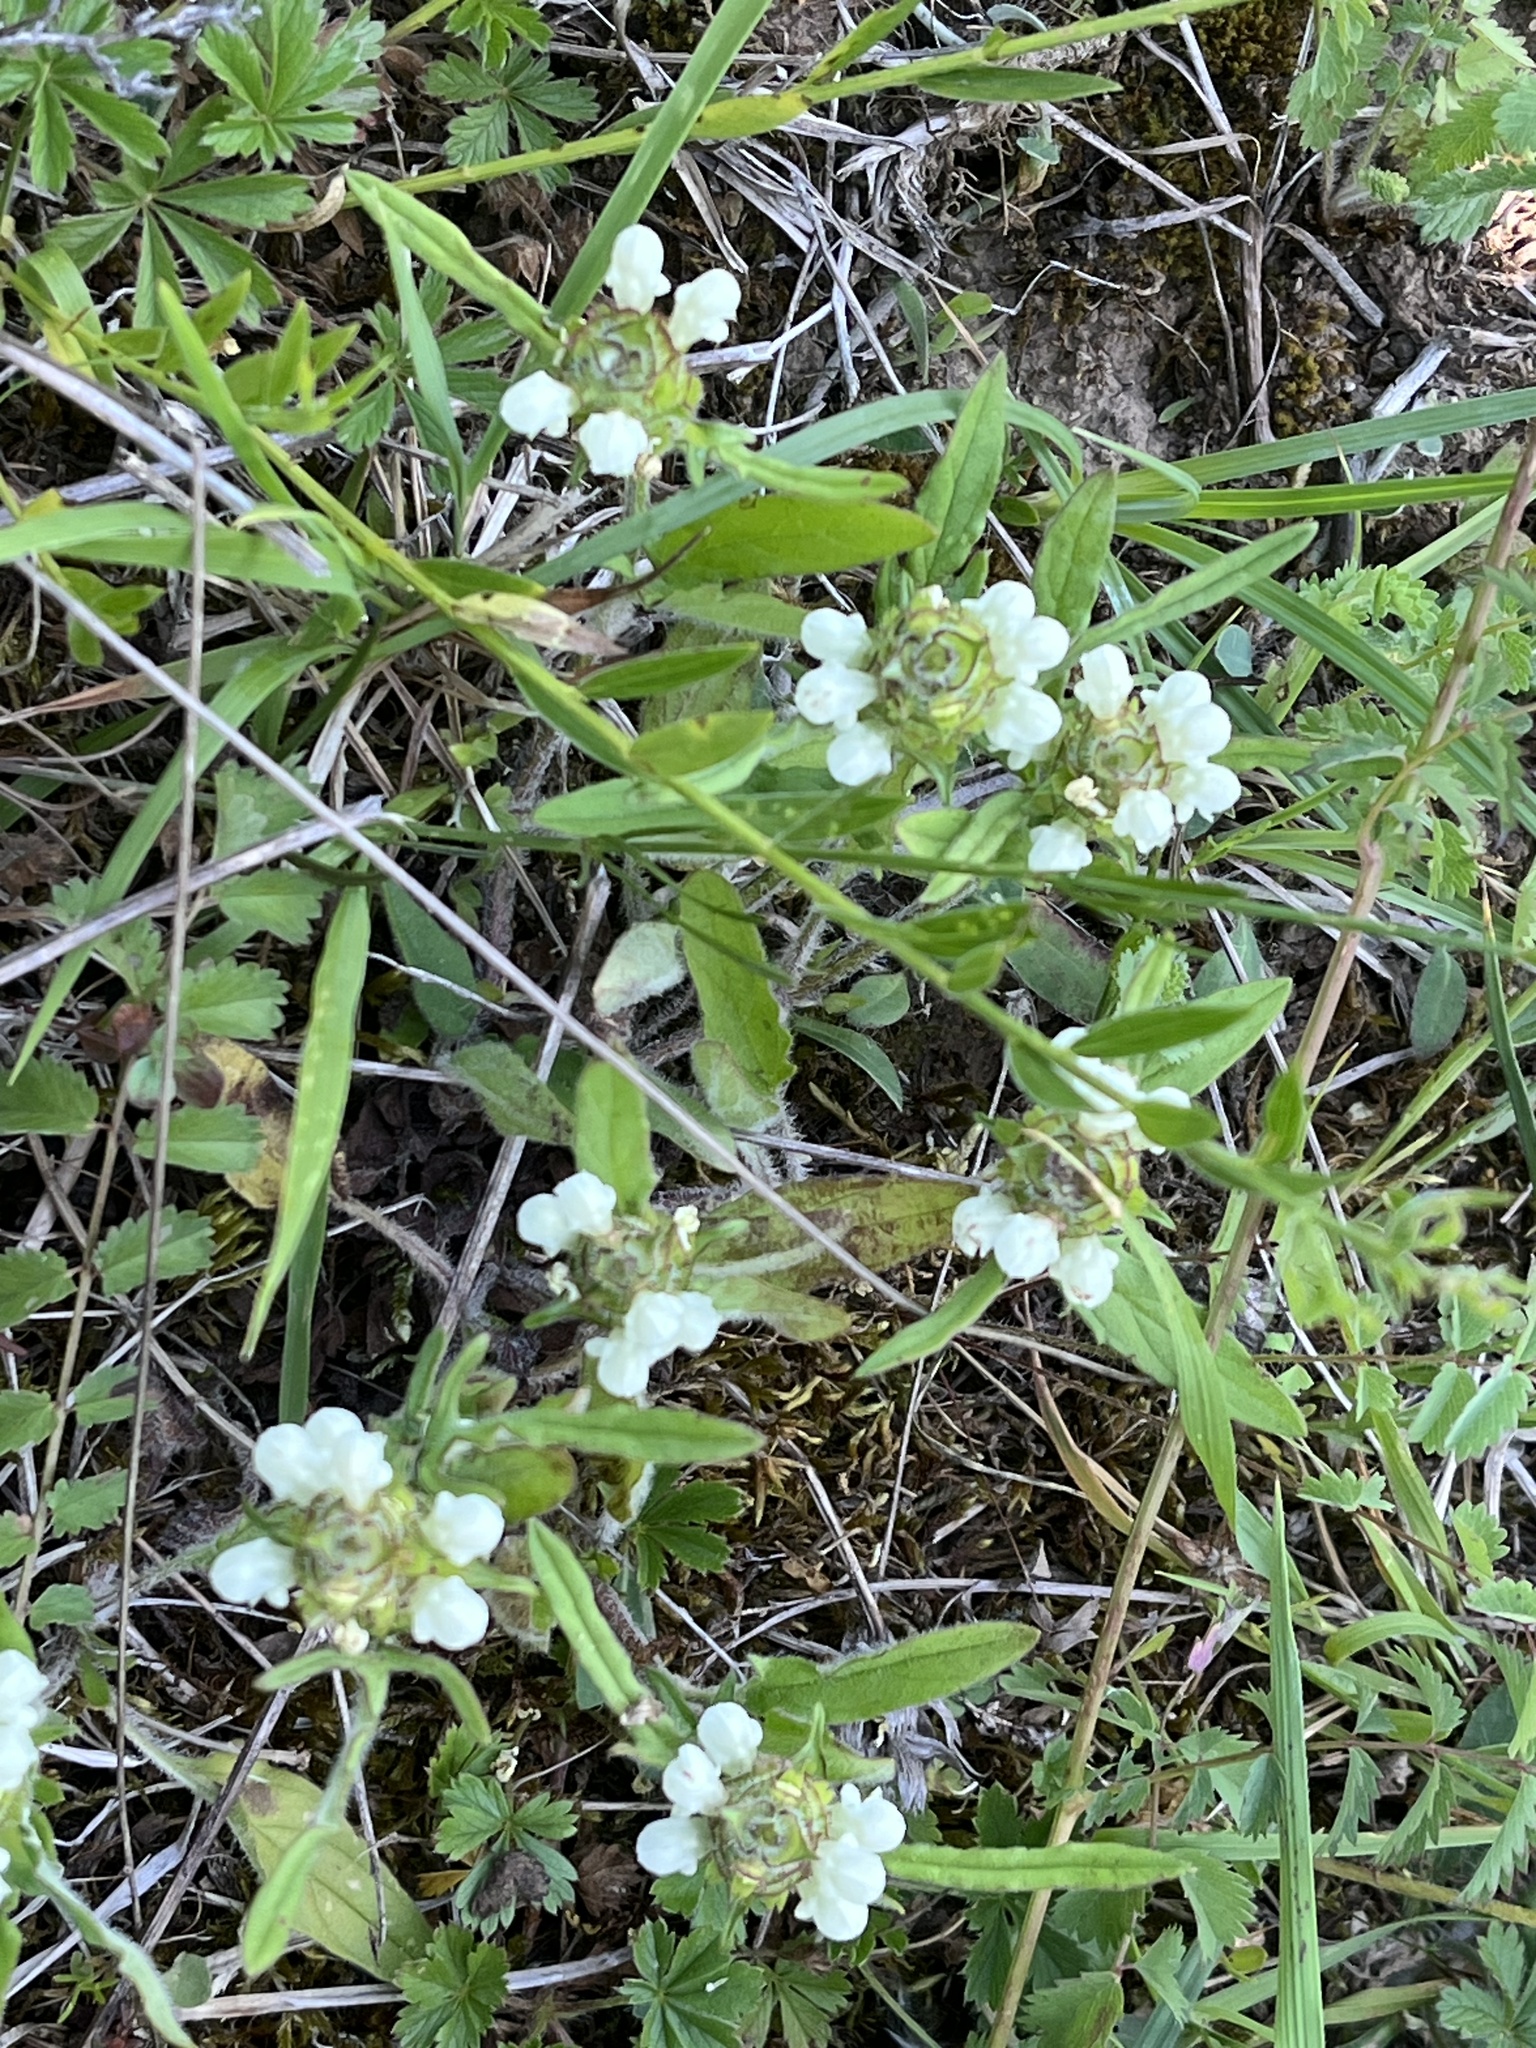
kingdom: Plantae
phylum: Tracheophyta
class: Magnoliopsida
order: Lamiales
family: Lamiaceae
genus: Prunella
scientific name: Prunella laciniata
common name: Cut-leaved selfheal
